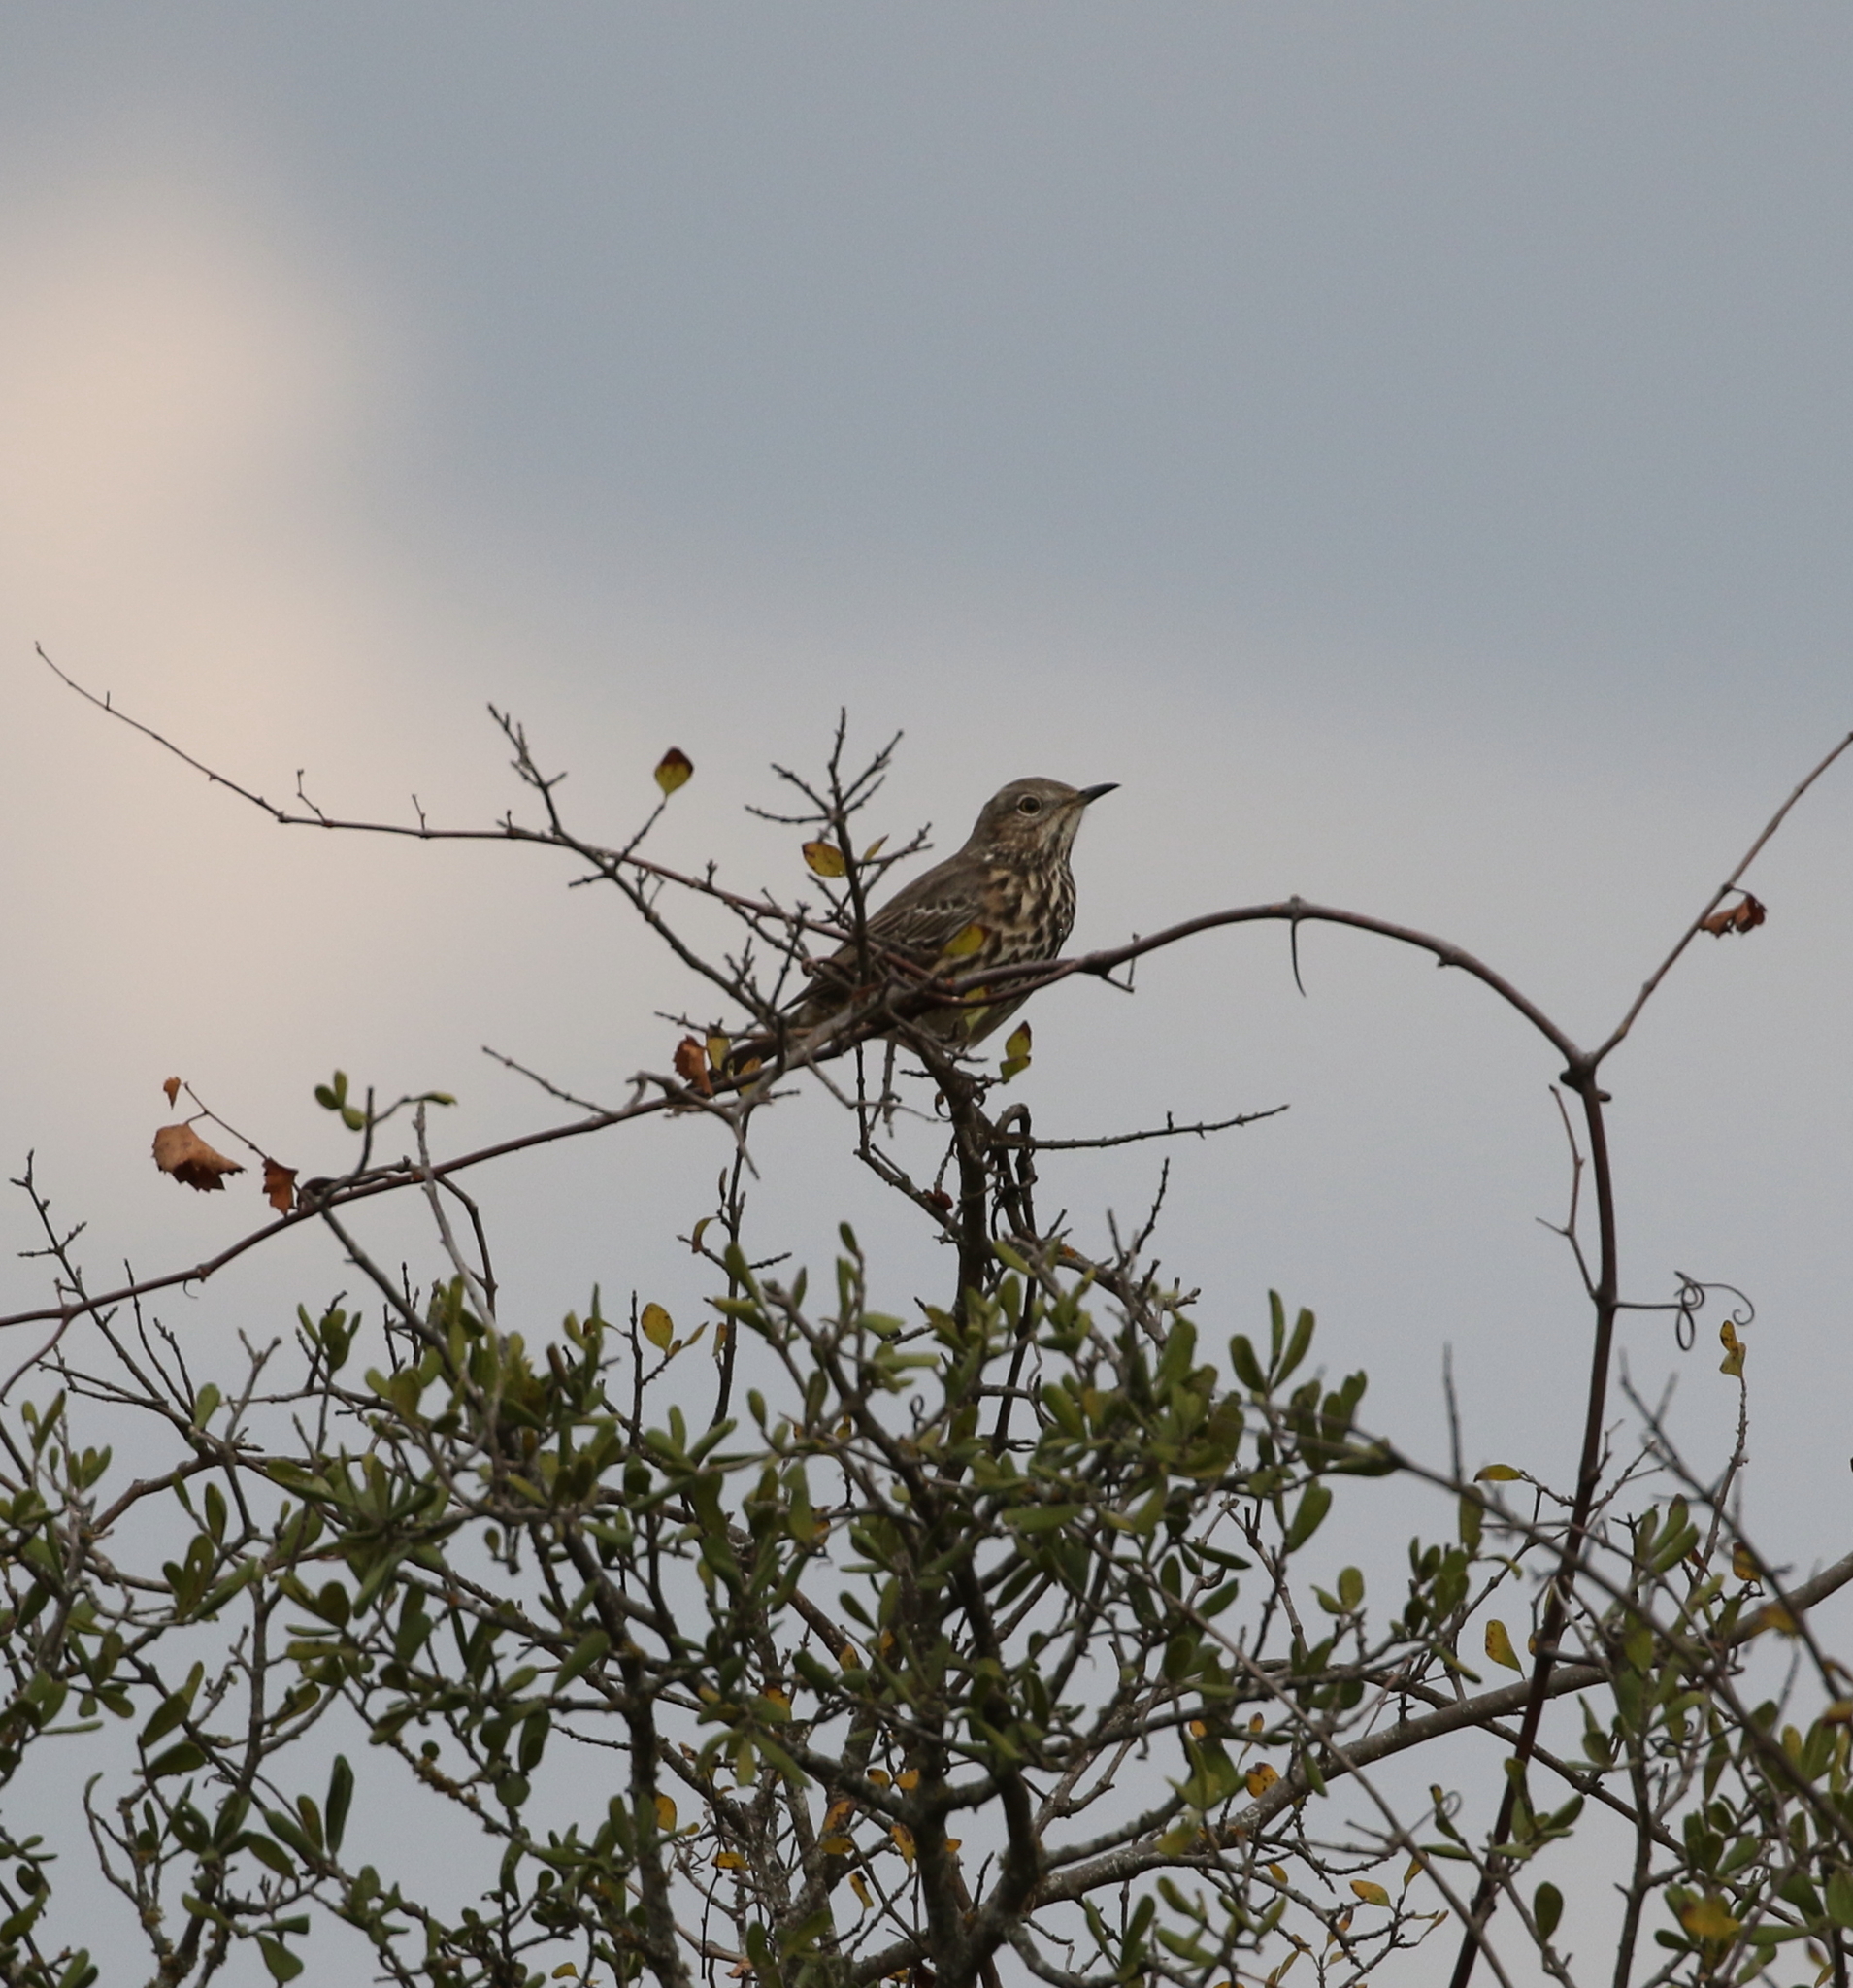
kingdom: Animalia
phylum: Chordata
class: Aves
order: Passeriformes
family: Mimidae
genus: Oreoscoptes
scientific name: Oreoscoptes montanus
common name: Sage thrasher
